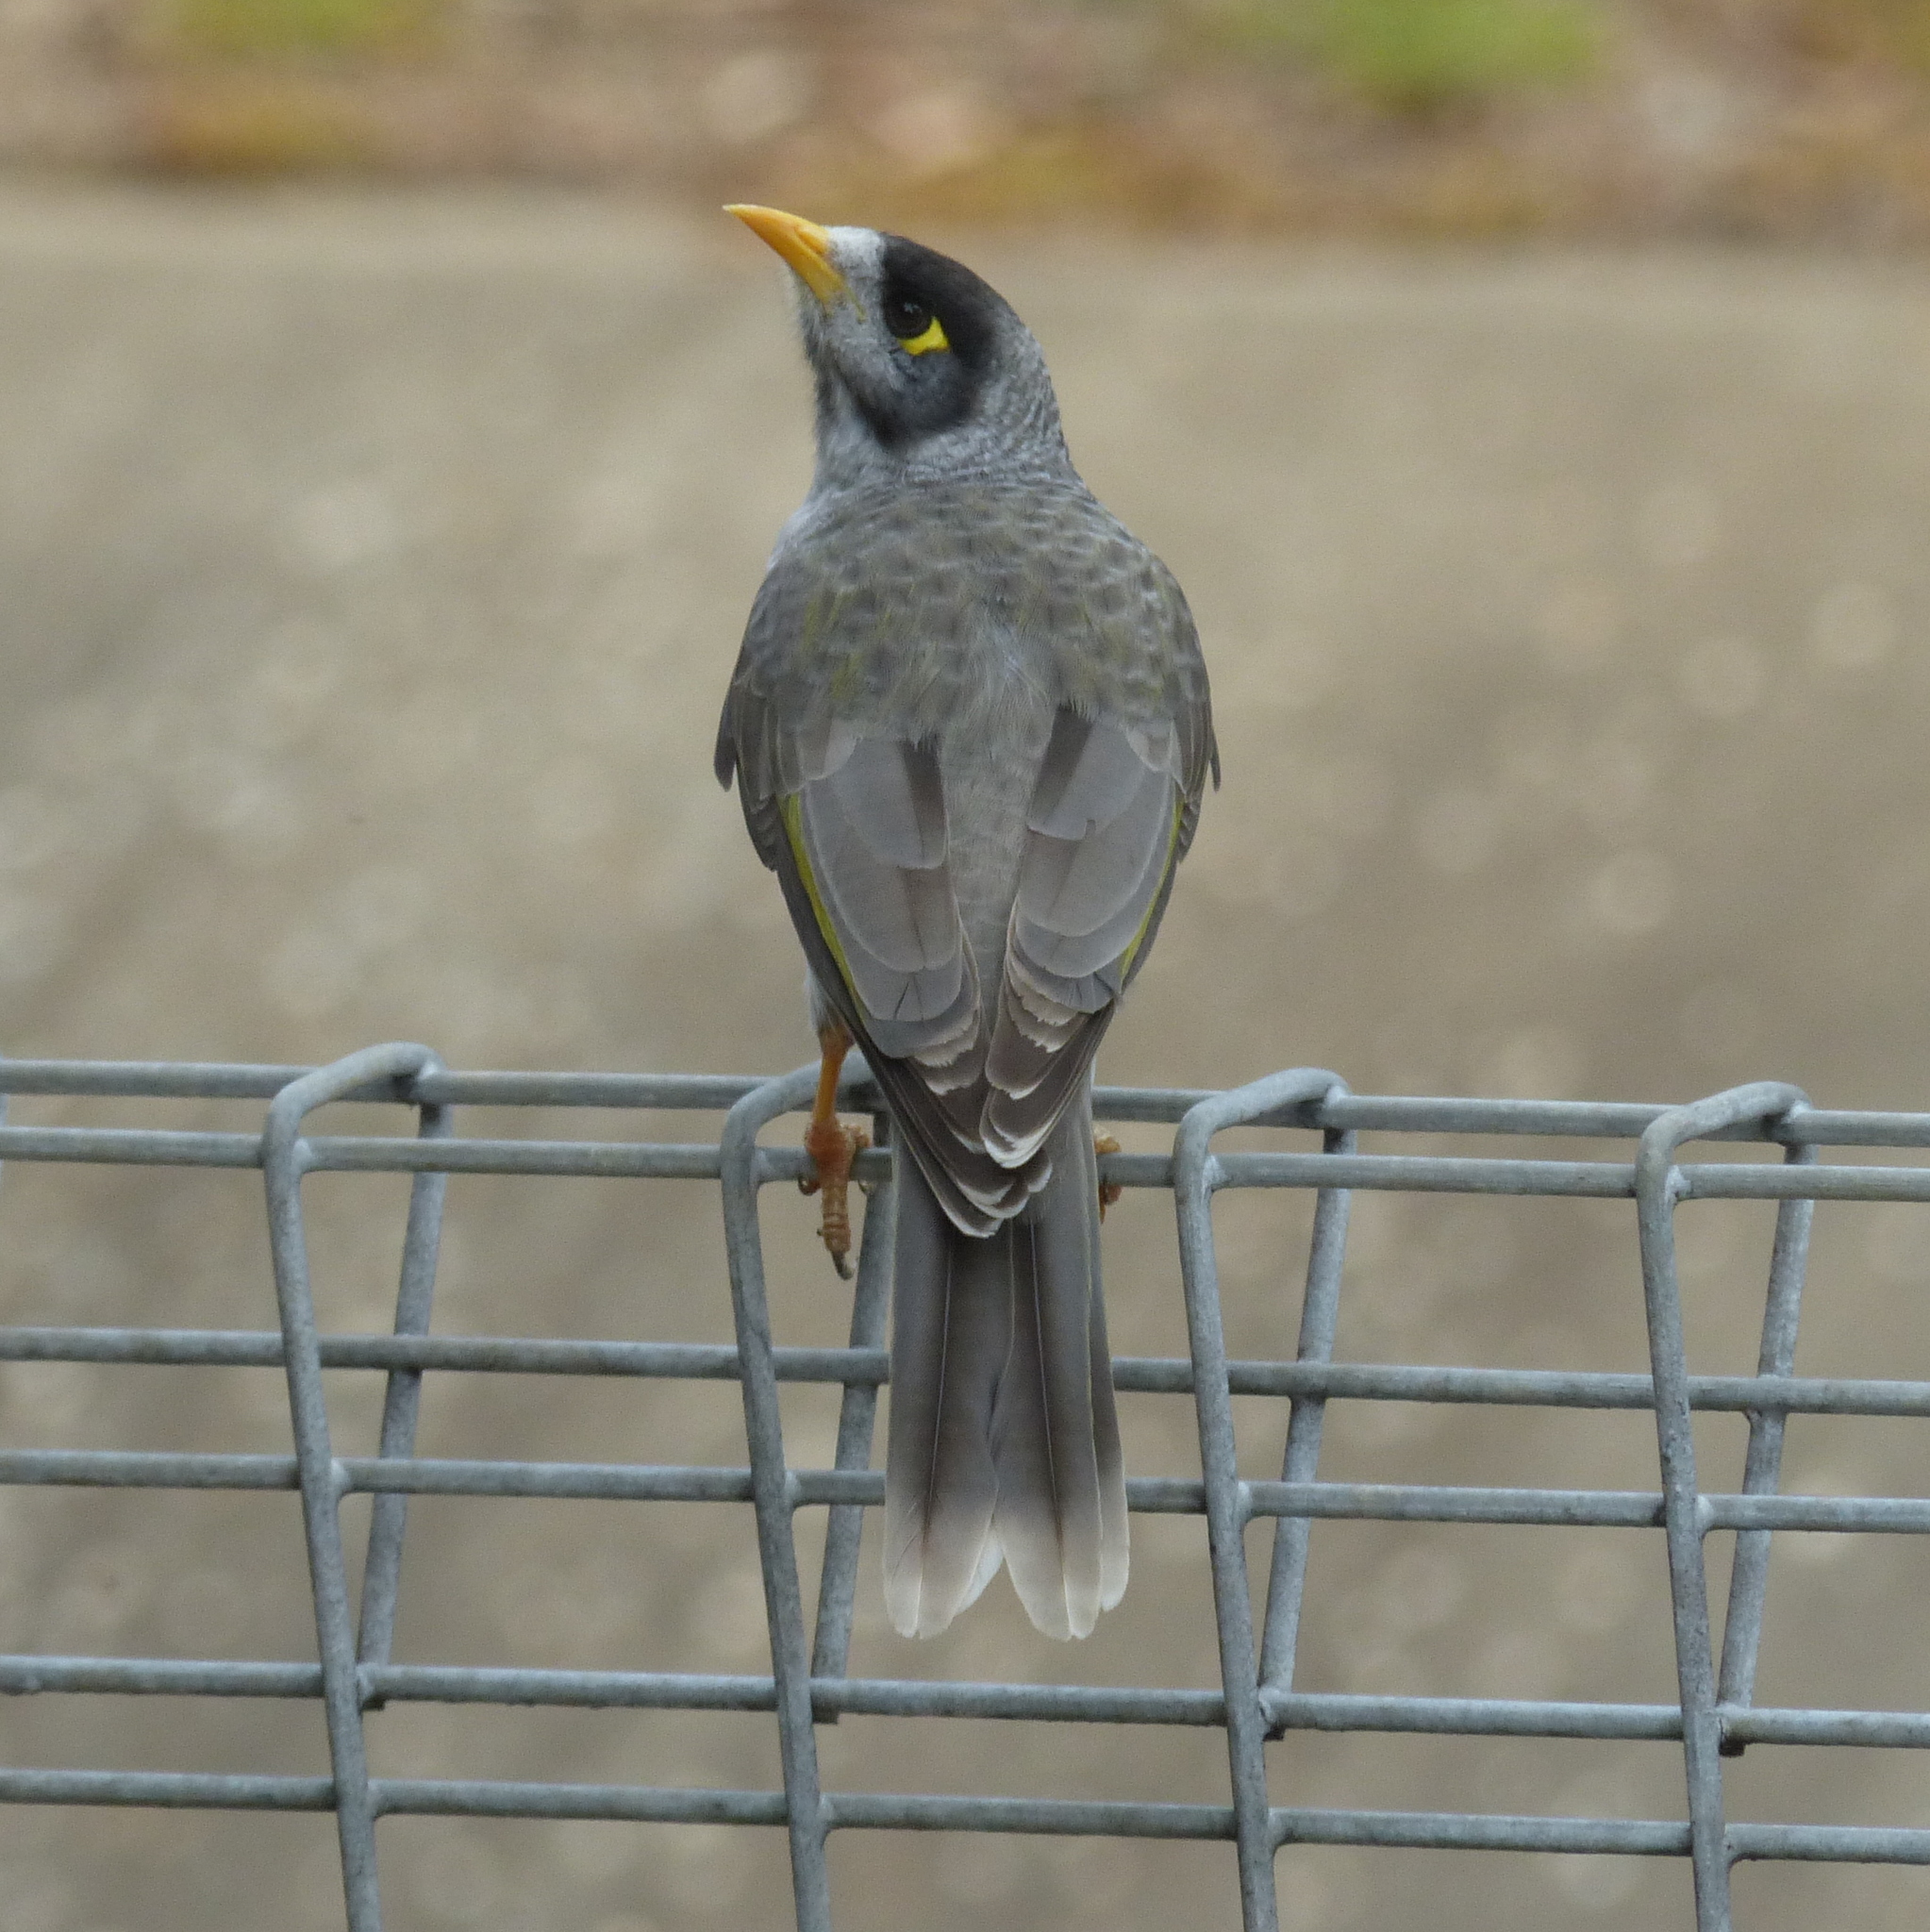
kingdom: Animalia
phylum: Chordata
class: Aves
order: Passeriformes
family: Meliphagidae
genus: Manorina
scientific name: Manorina melanocephala
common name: Noisy miner
